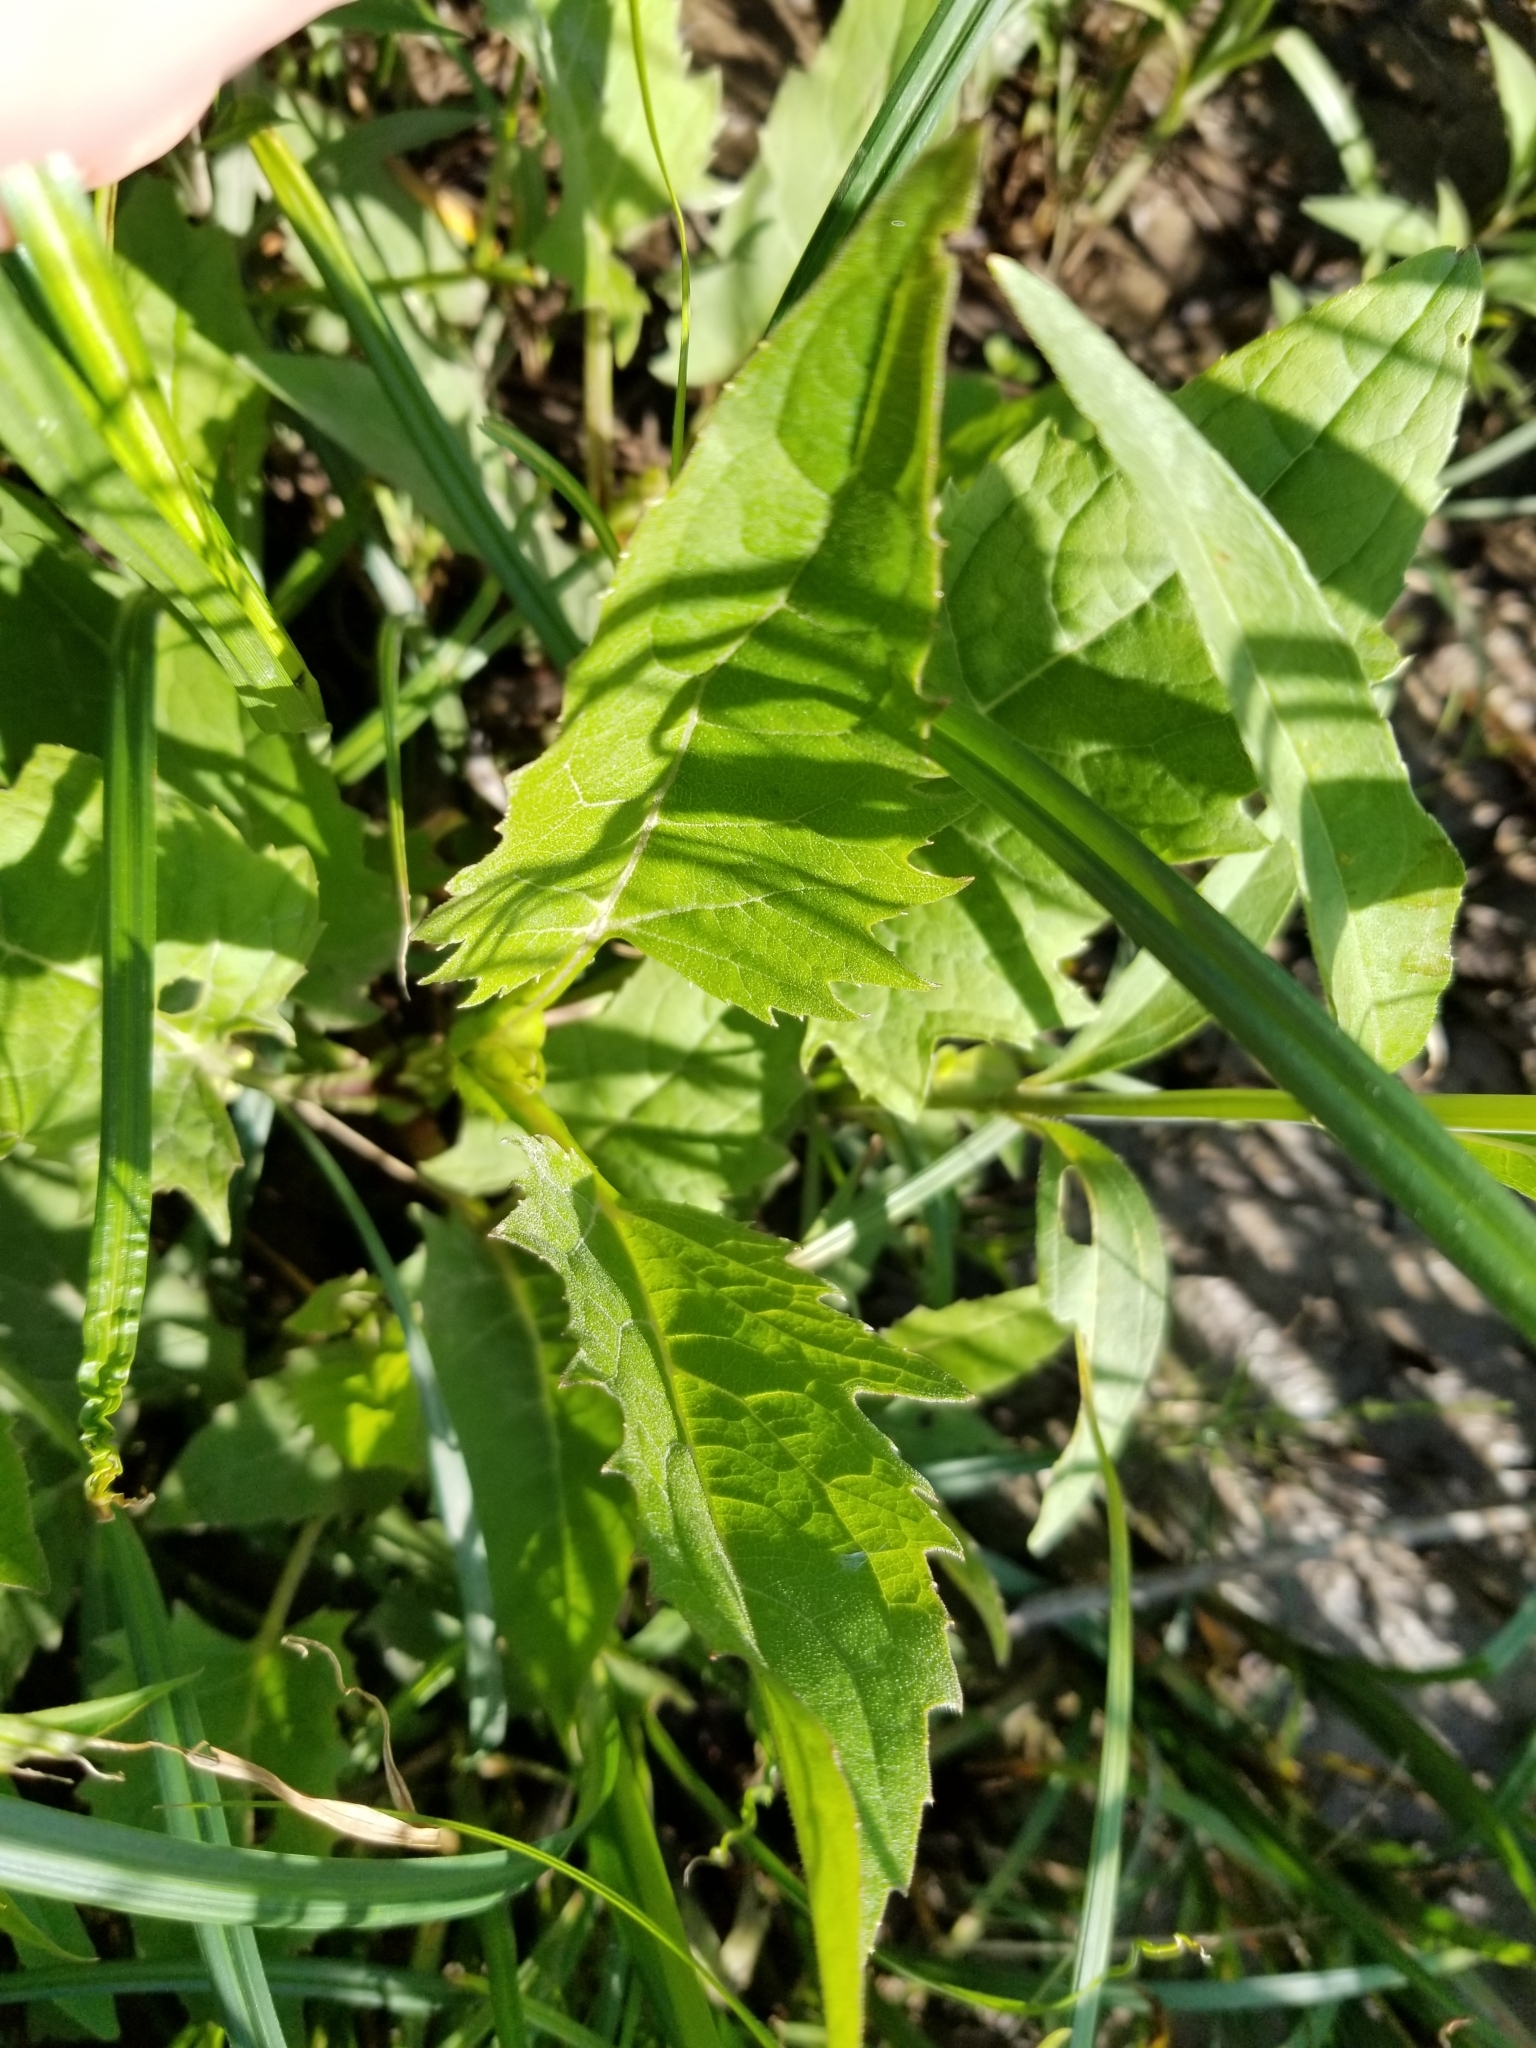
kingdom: Plantae
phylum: Tracheophyta
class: Magnoliopsida
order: Asterales
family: Asteraceae
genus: Silphium
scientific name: Silphium perfoliatum
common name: Cup-plant
